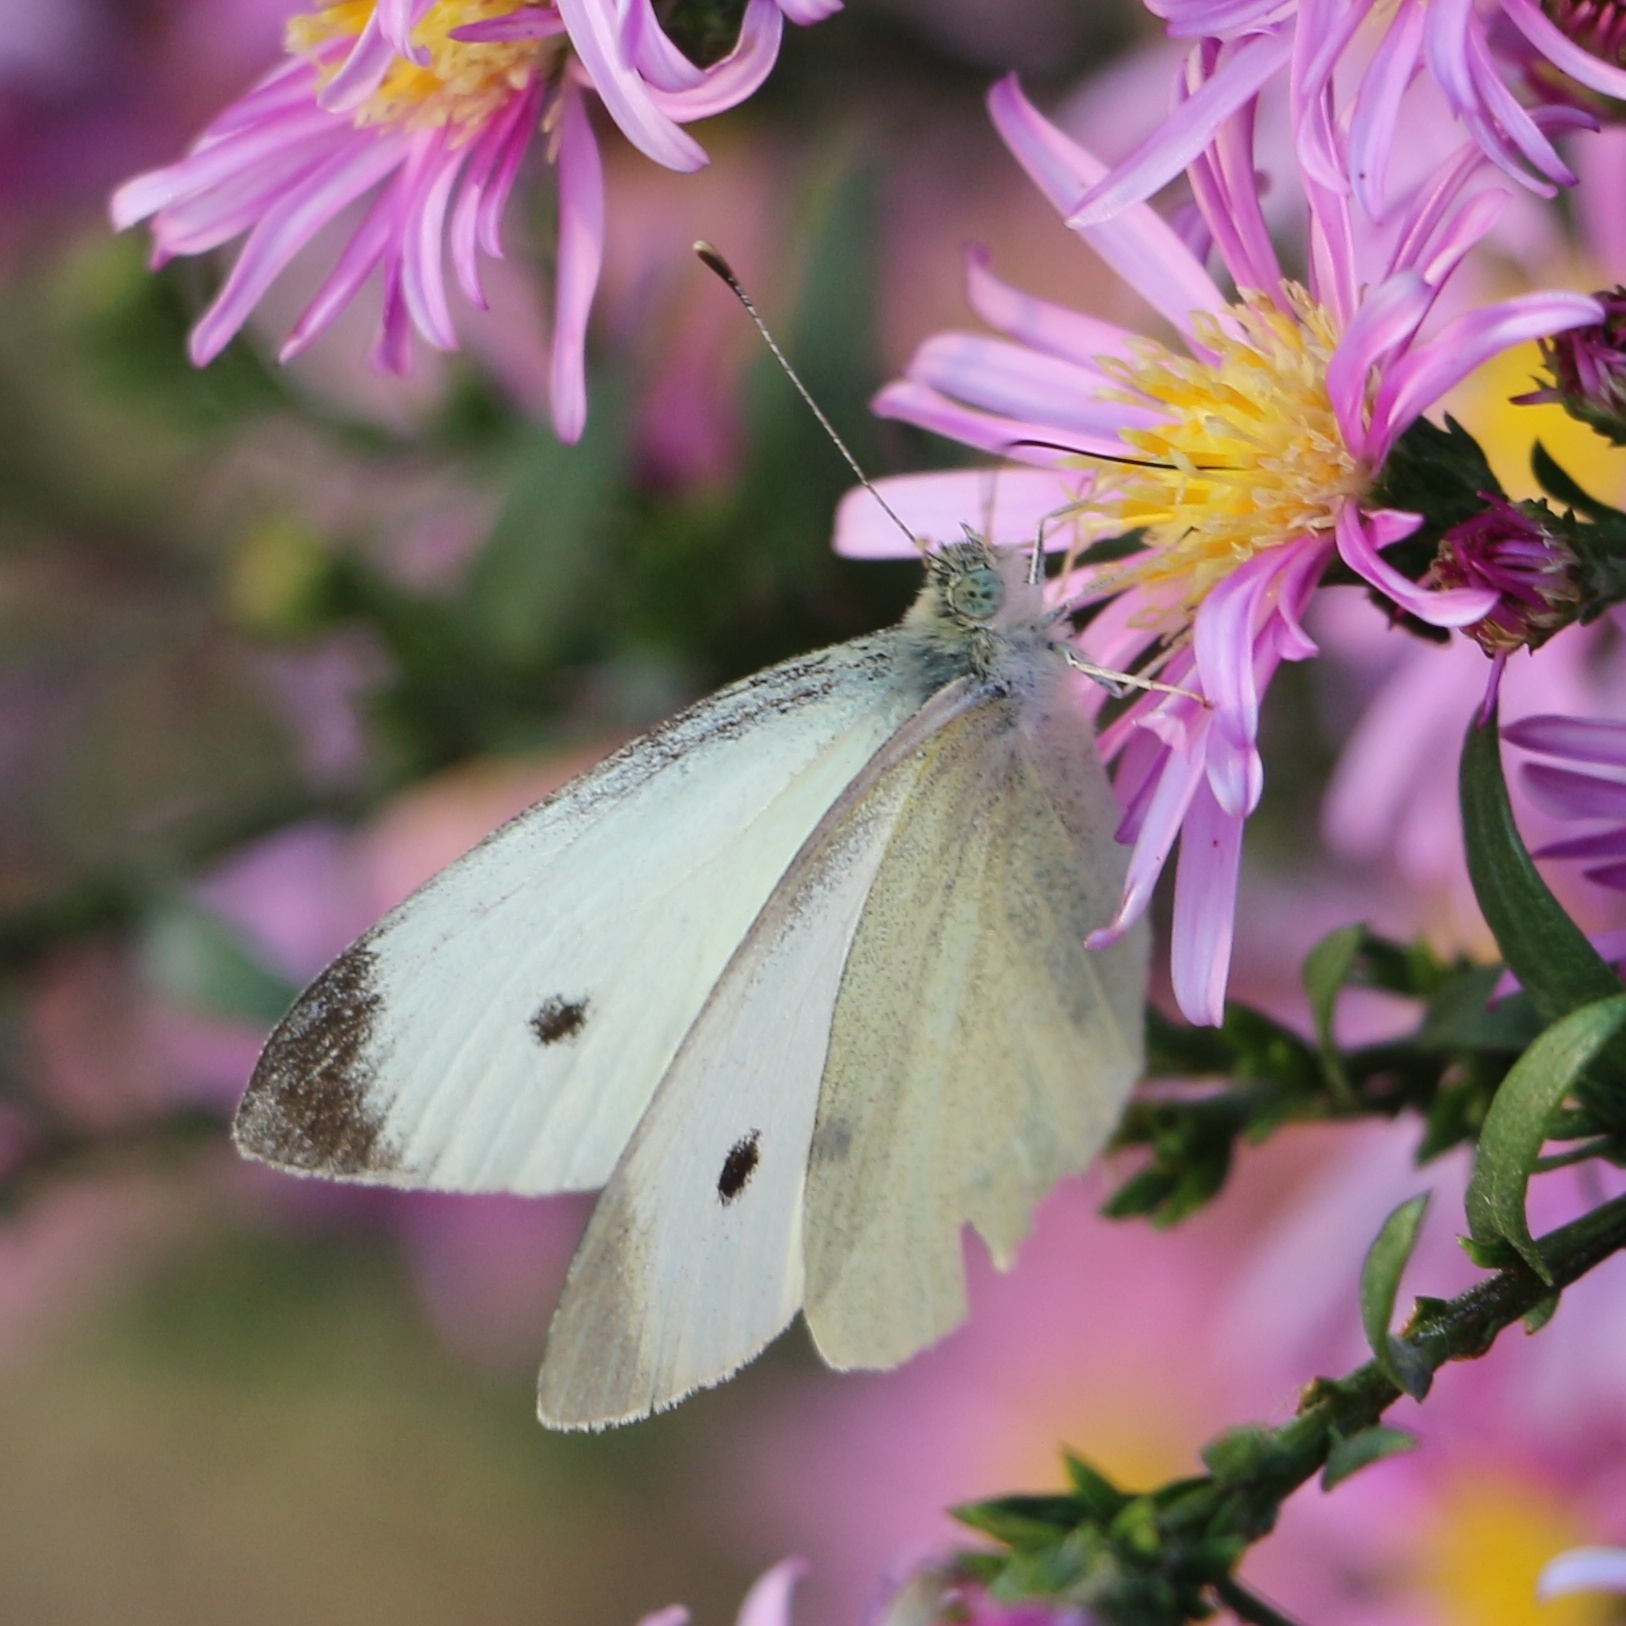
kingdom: Animalia
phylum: Arthropoda
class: Insecta
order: Lepidoptera
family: Pieridae
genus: Pieris
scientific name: Pieris rapae
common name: Small white
